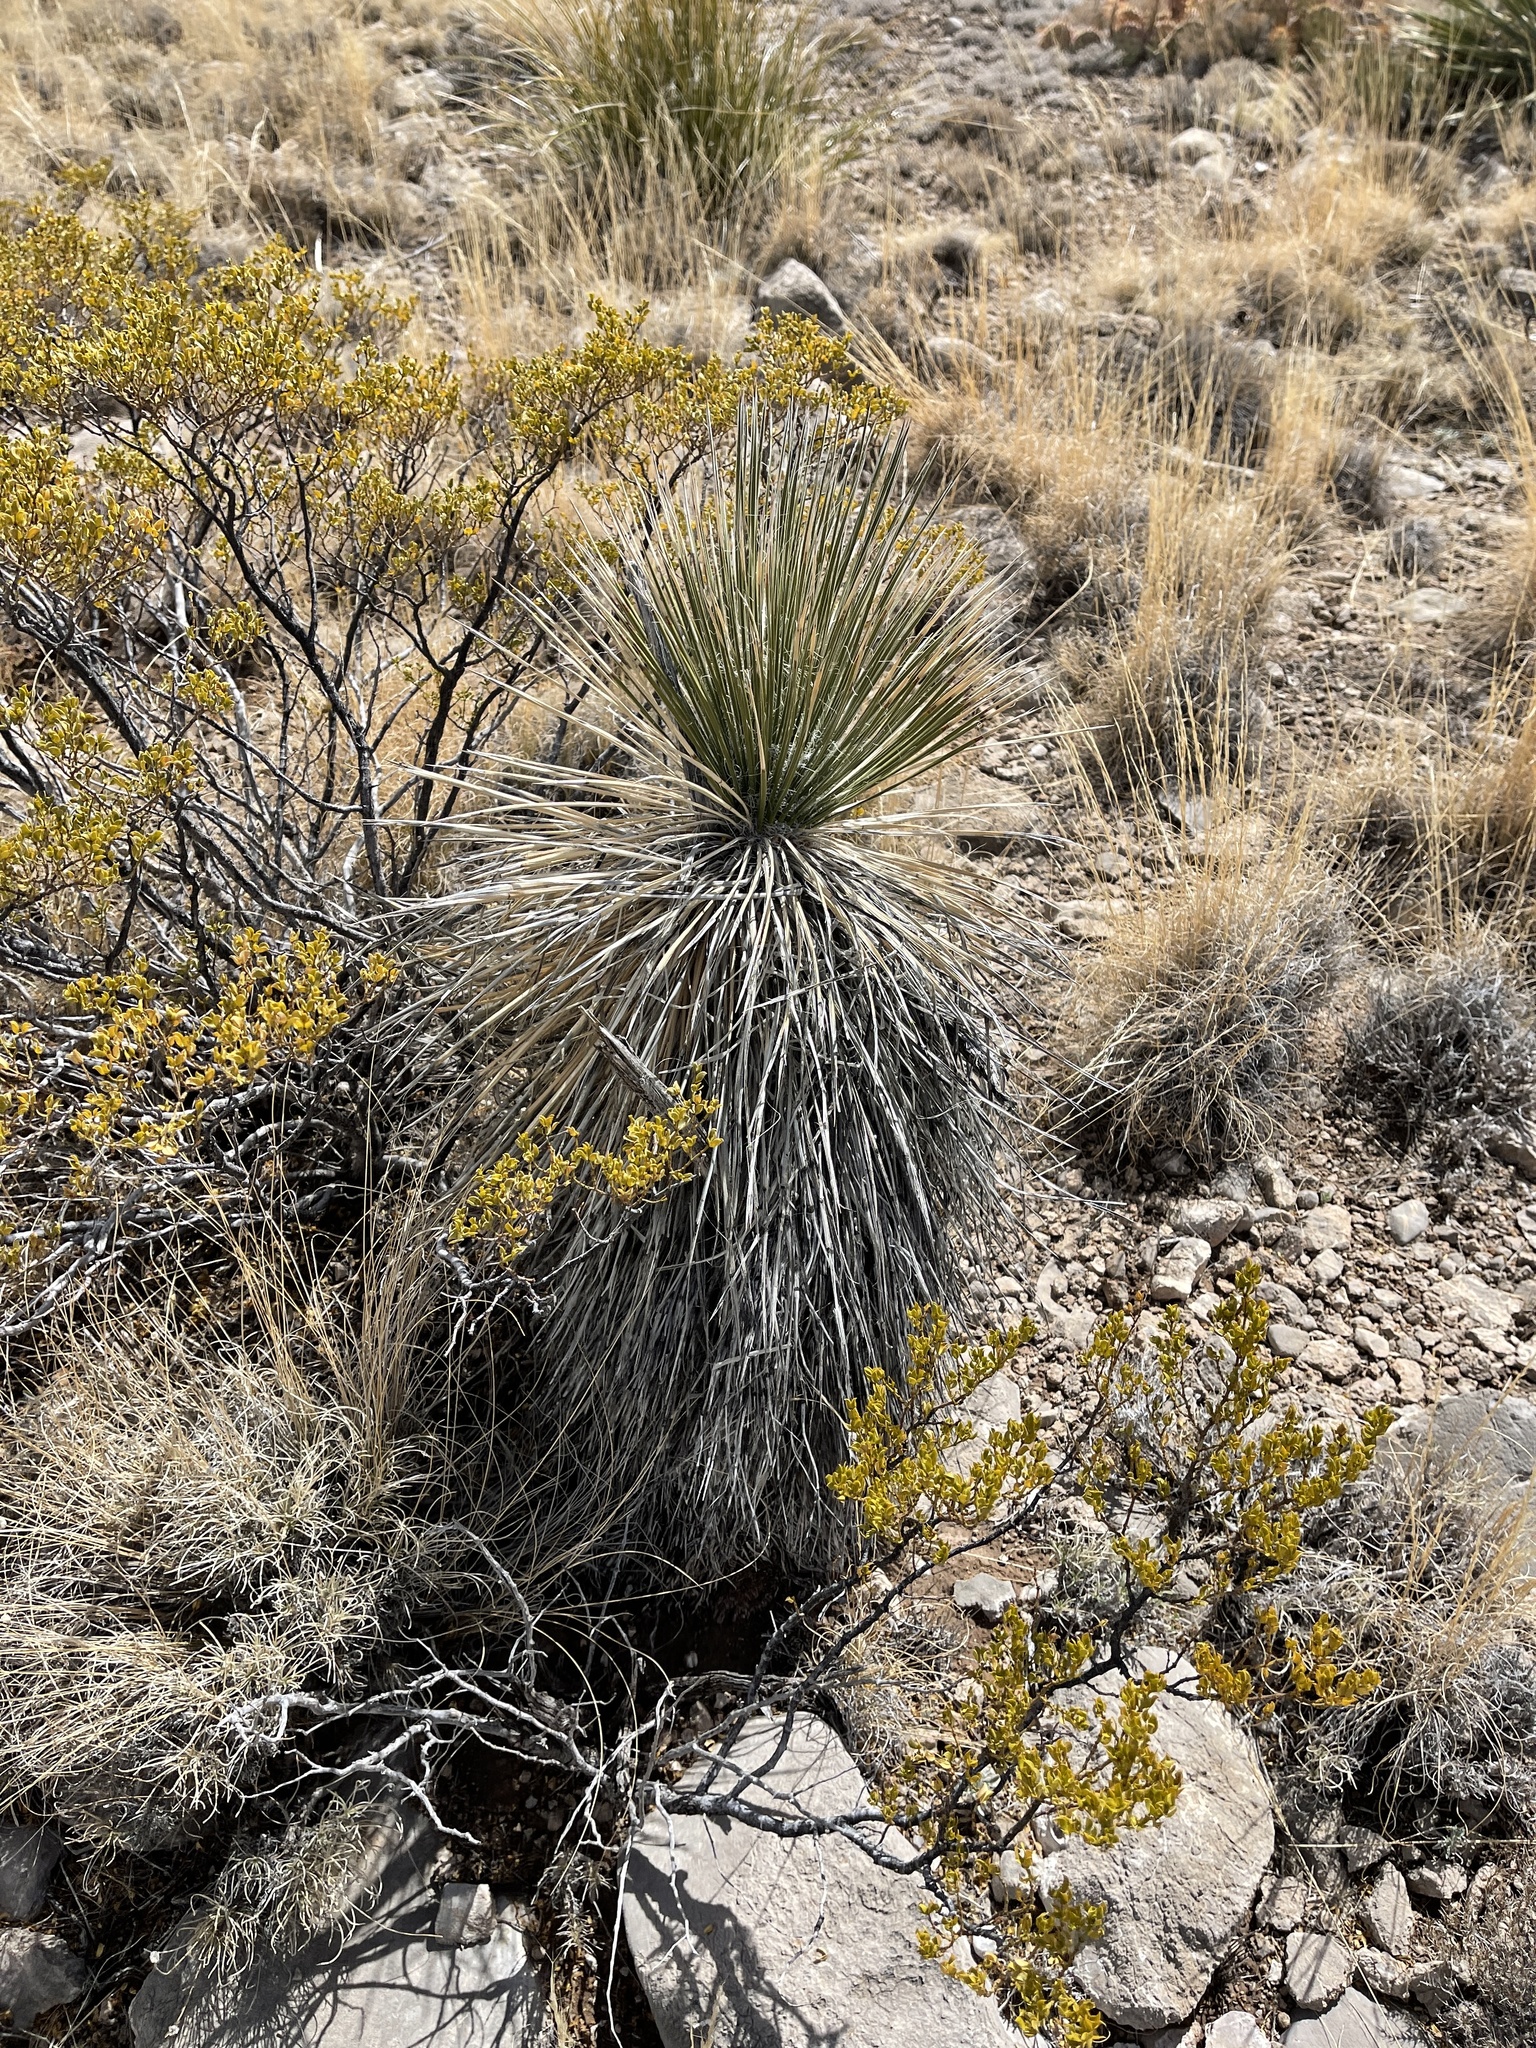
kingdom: Plantae
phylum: Tracheophyta
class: Liliopsida
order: Asparagales
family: Asparagaceae
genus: Yucca
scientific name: Yucca elata
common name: Palmella
